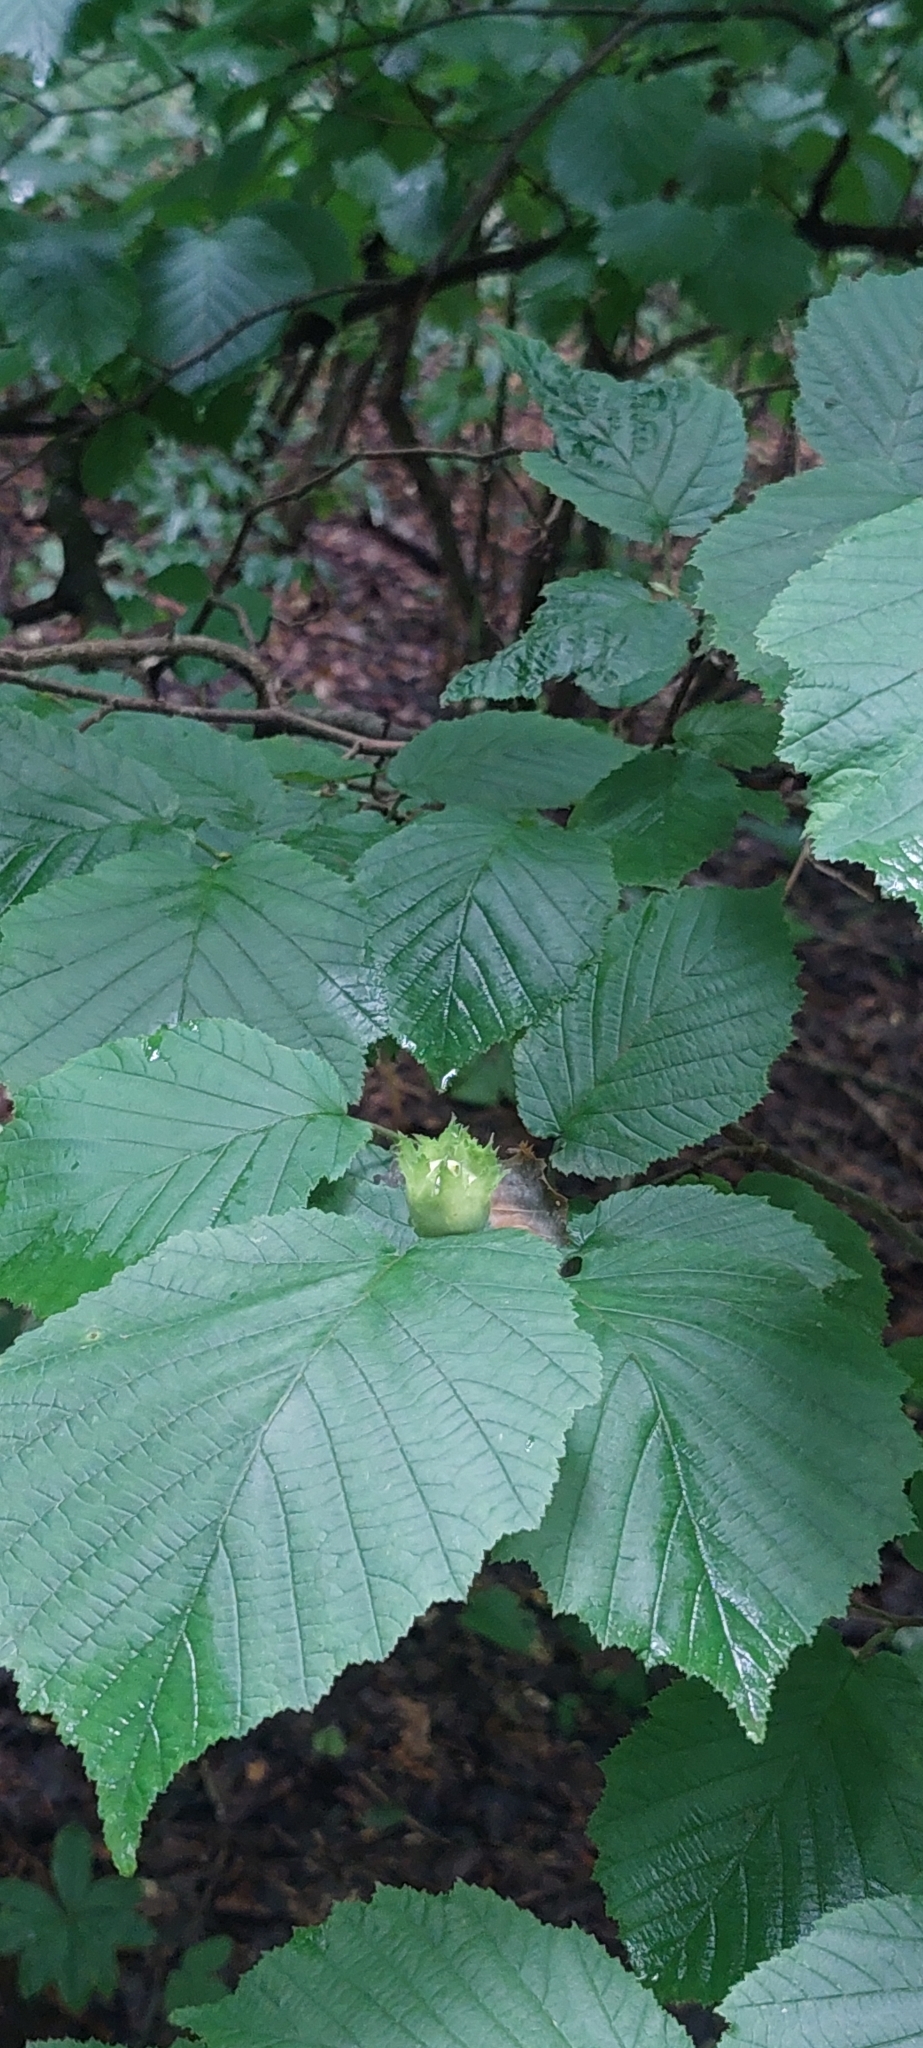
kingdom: Plantae
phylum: Tracheophyta
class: Magnoliopsida
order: Fagales
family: Betulaceae
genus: Corylus
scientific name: Corylus avellana
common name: European hazel
